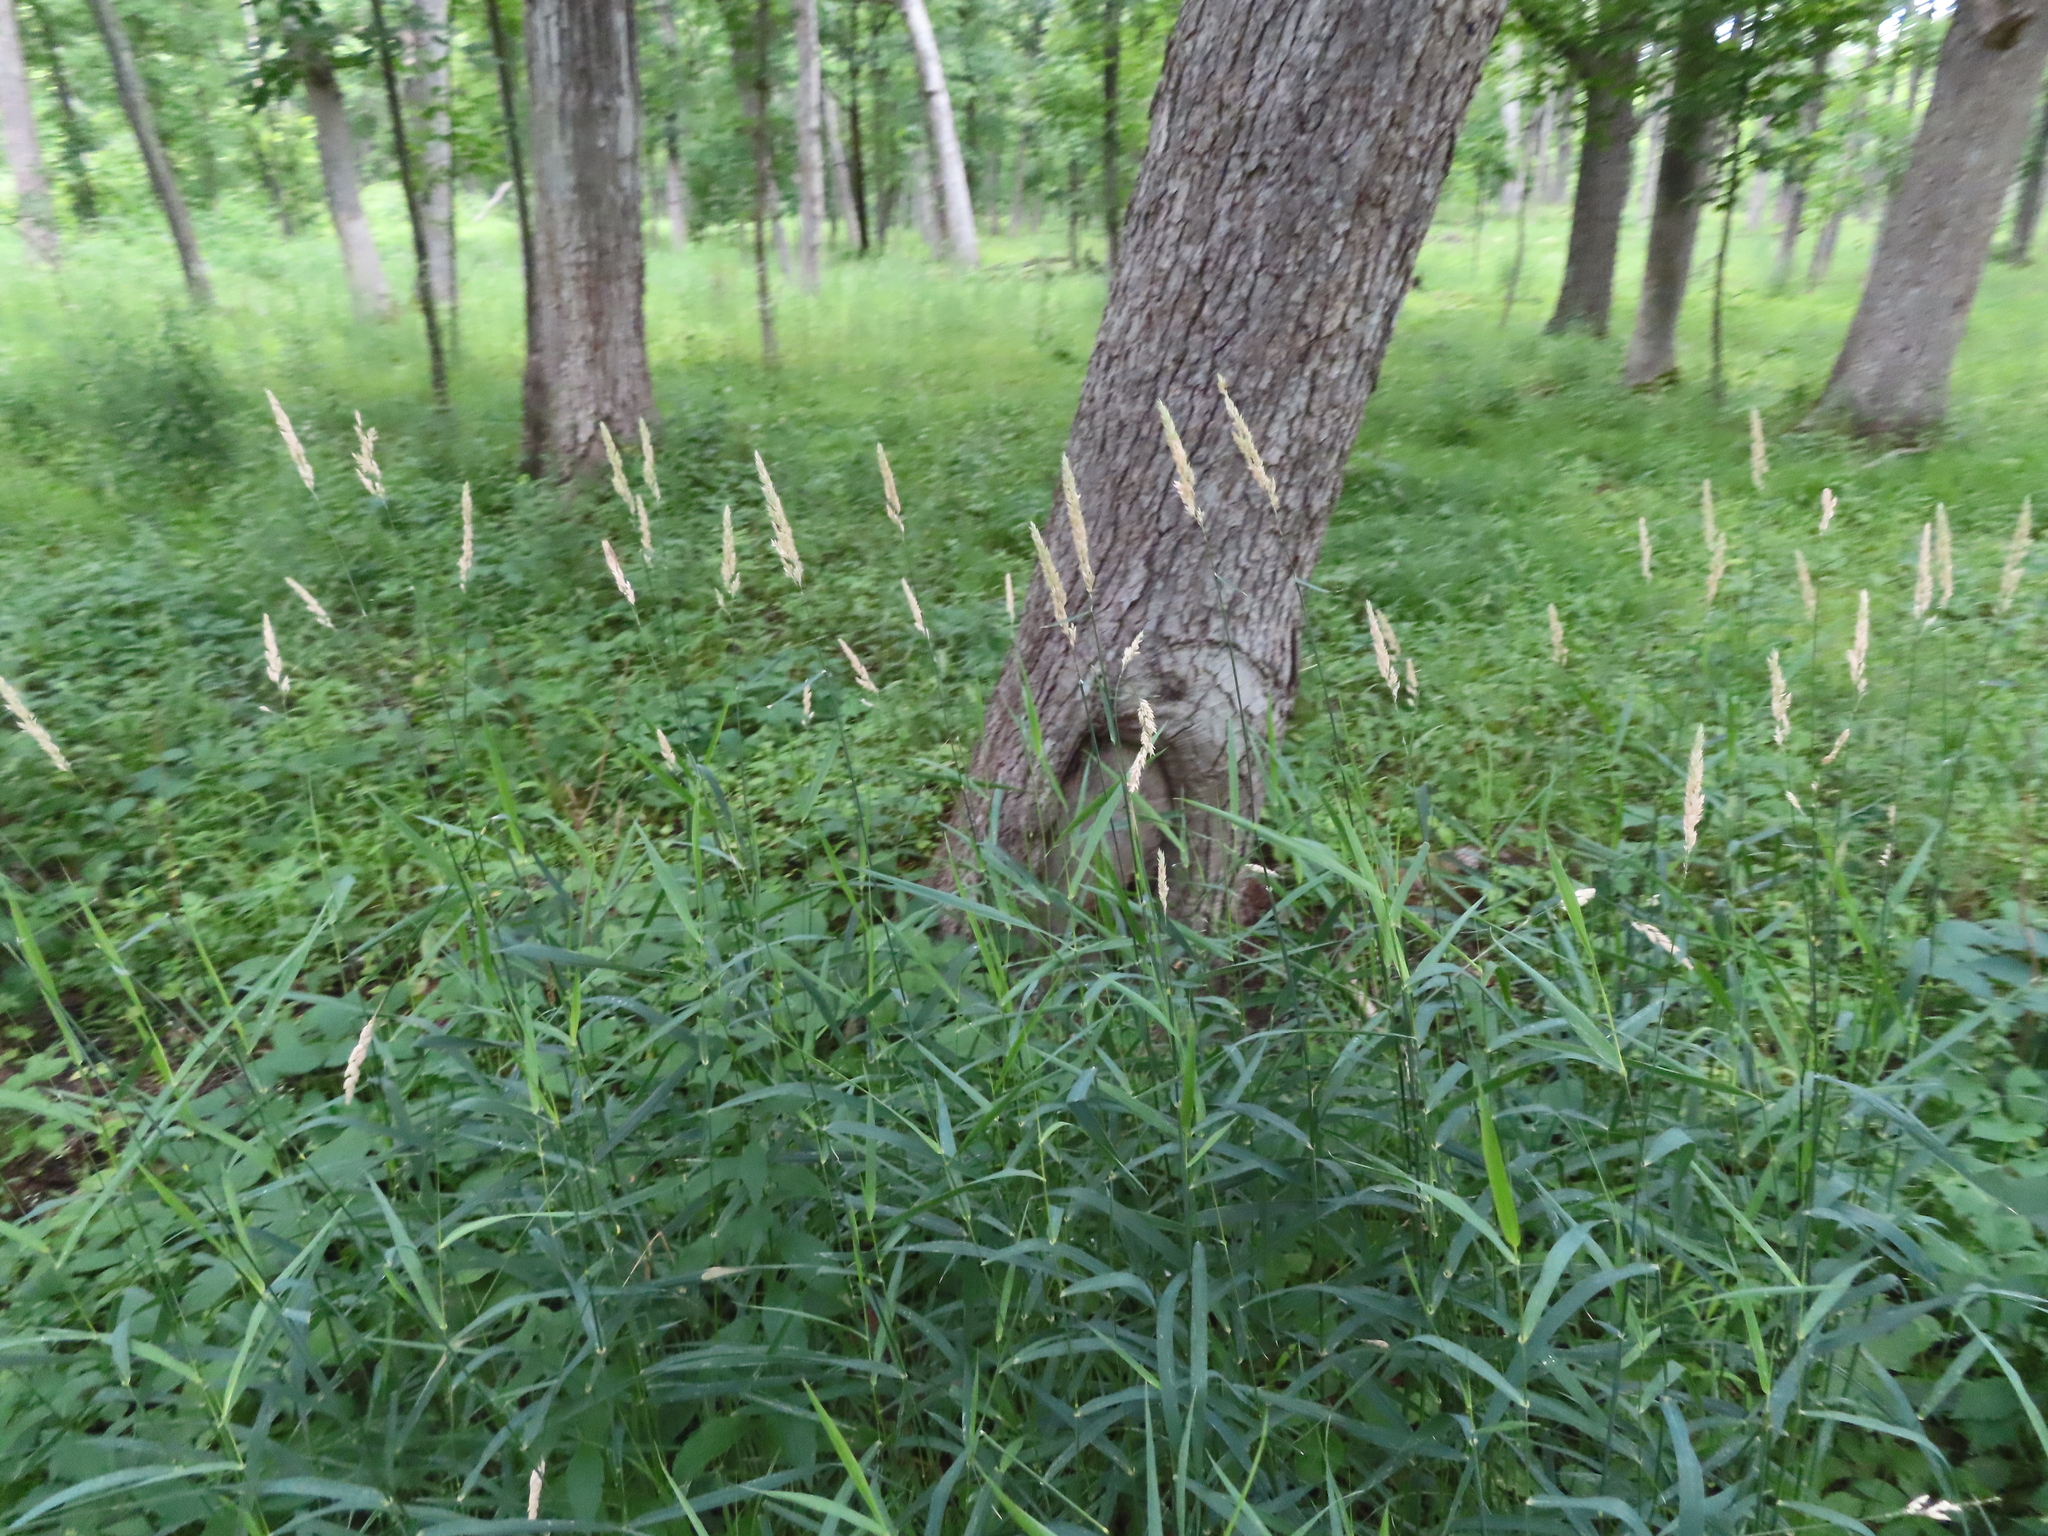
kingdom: Plantae
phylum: Tracheophyta
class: Liliopsida
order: Poales
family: Poaceae
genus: Phalaris
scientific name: Phalaris arundinacea
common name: Reed canary-grass
